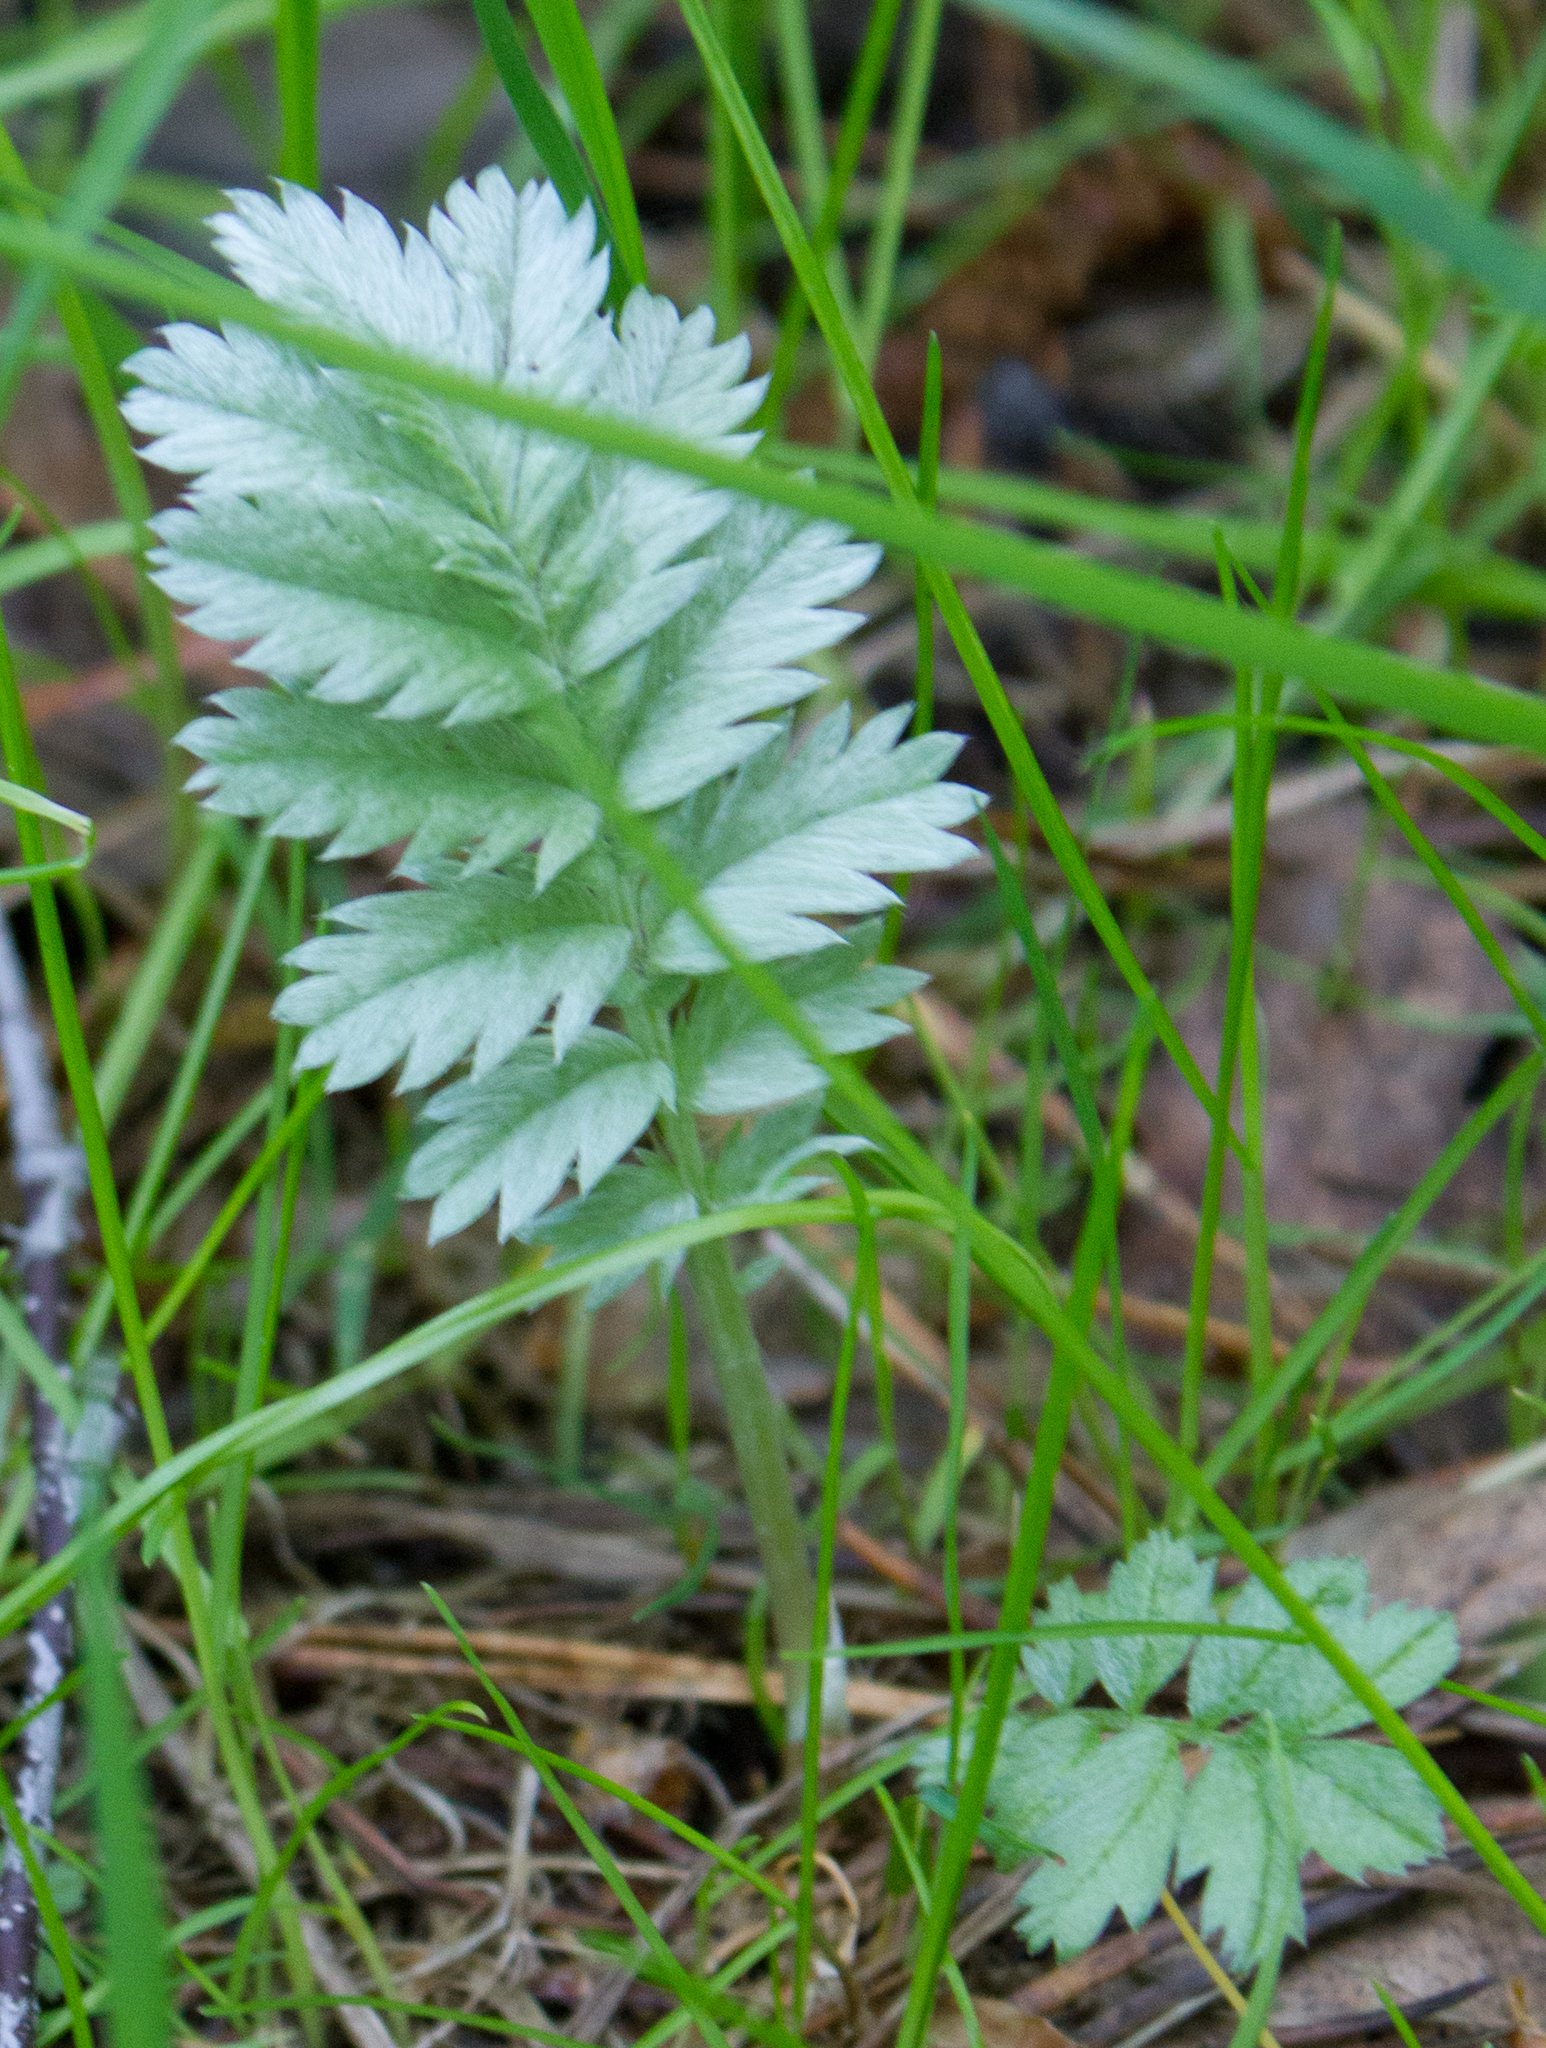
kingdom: Plantae
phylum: Tracheophyta
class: Magnoliopsida
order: Rosales
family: Rosaceae
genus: Argentina
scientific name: Argentina anserina
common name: Common silverweed
